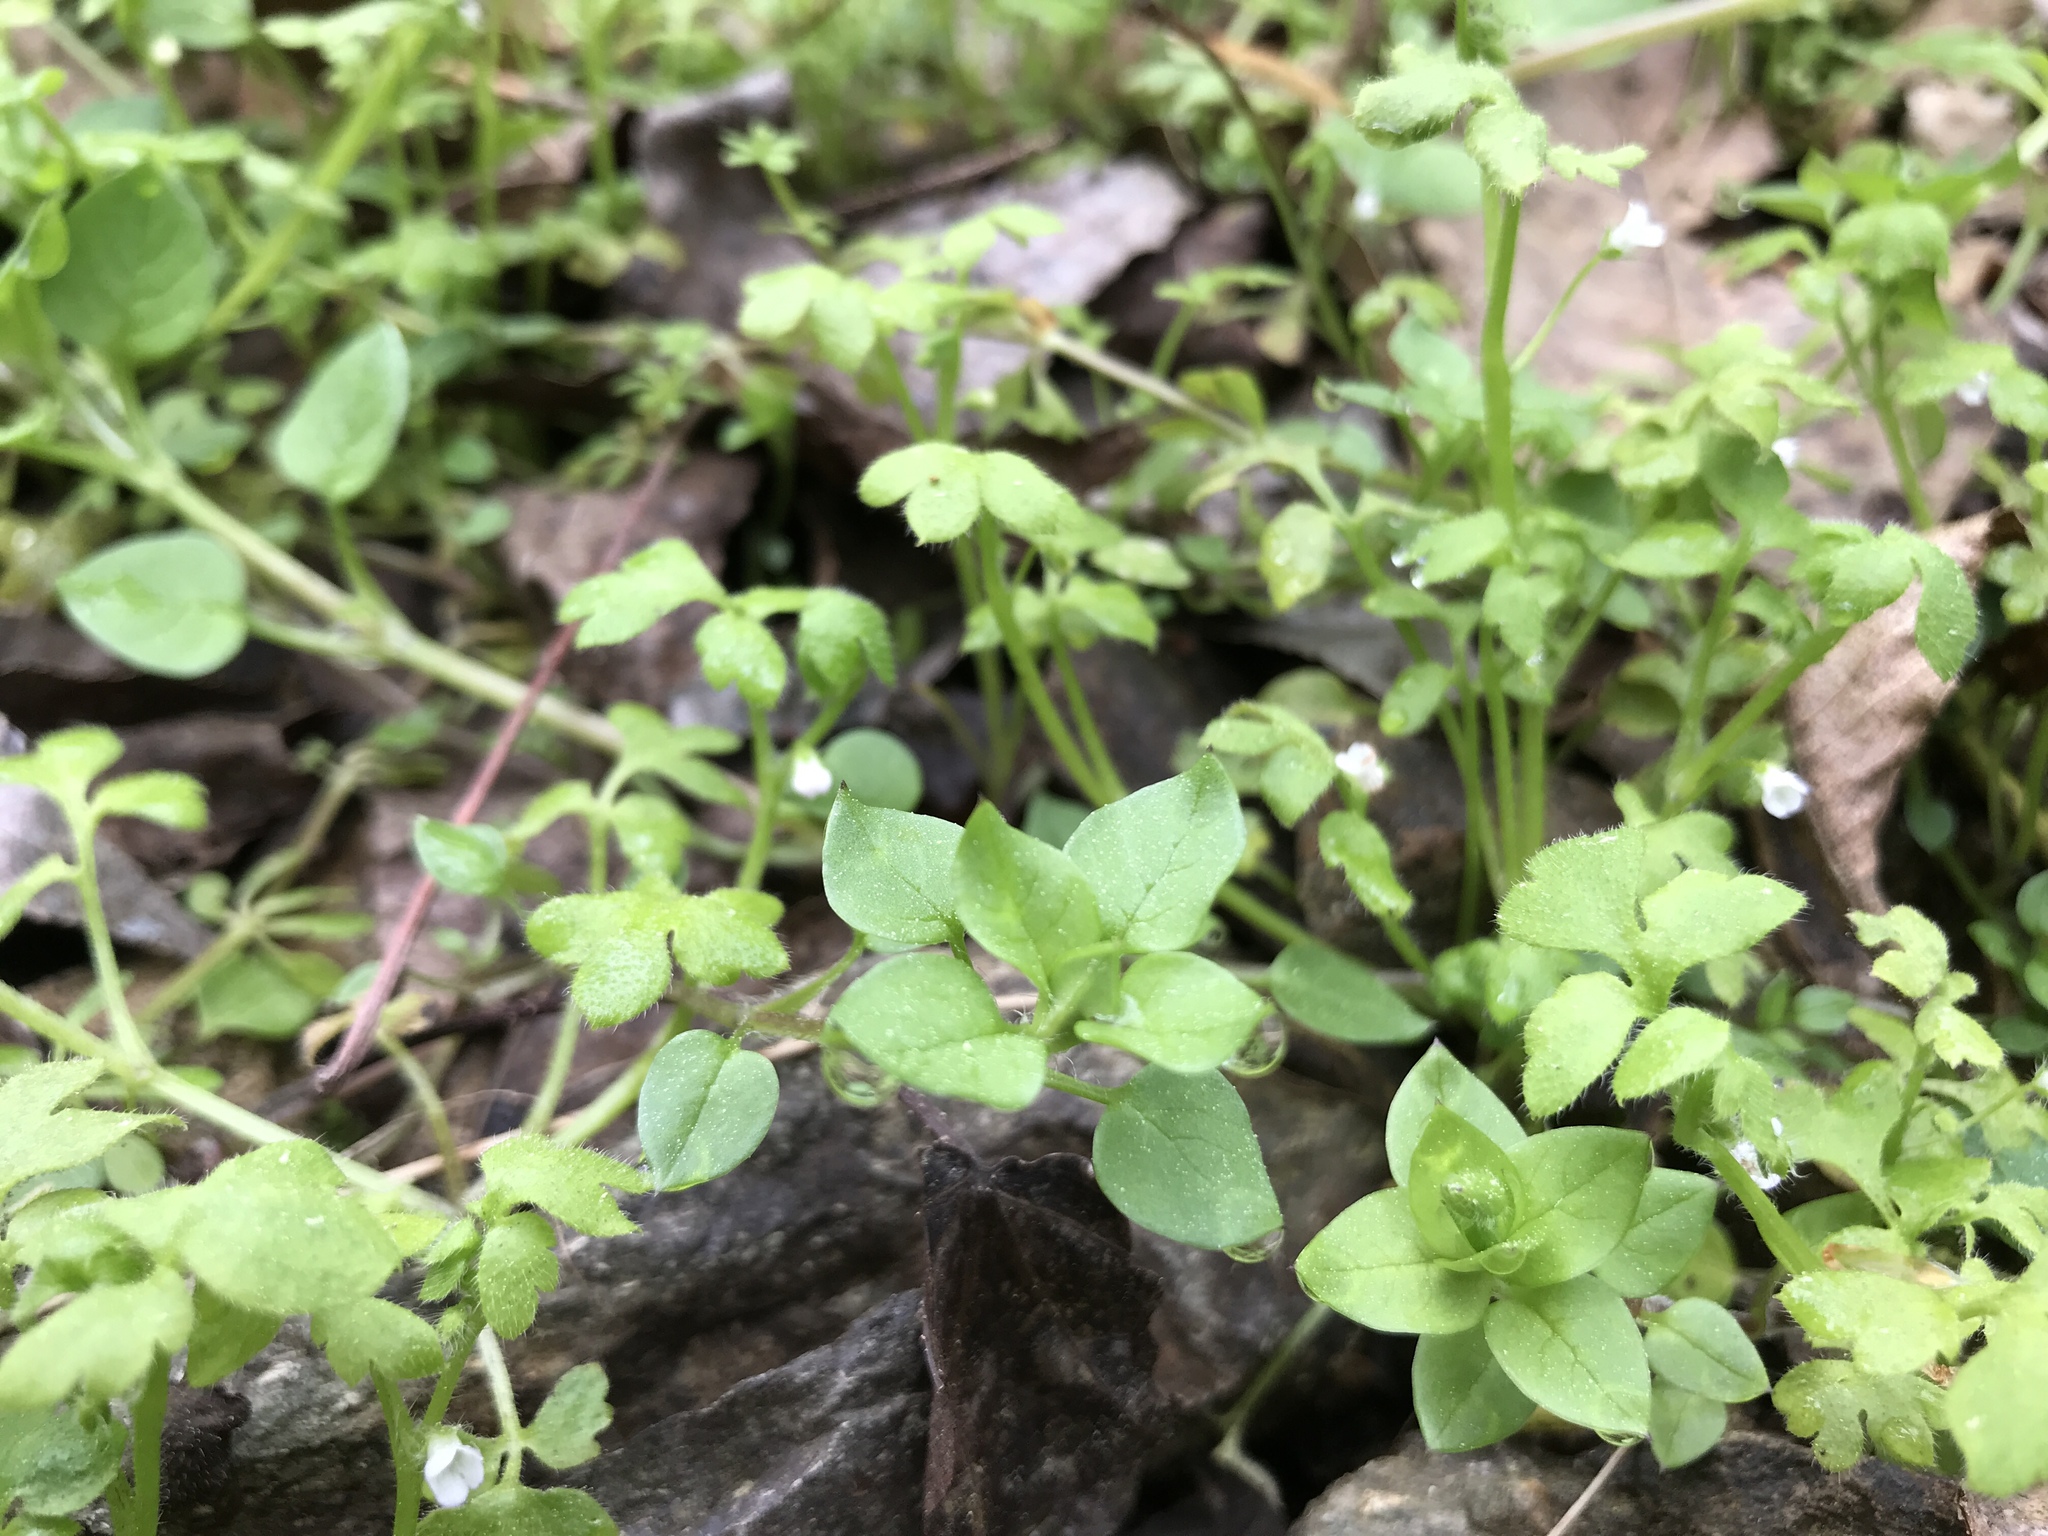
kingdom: Plantae
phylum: Tracheophyta
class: Magnoliopsida
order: Boraginales
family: Hydrophyllaceae
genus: Nemophila
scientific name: Nemophila aphylla
